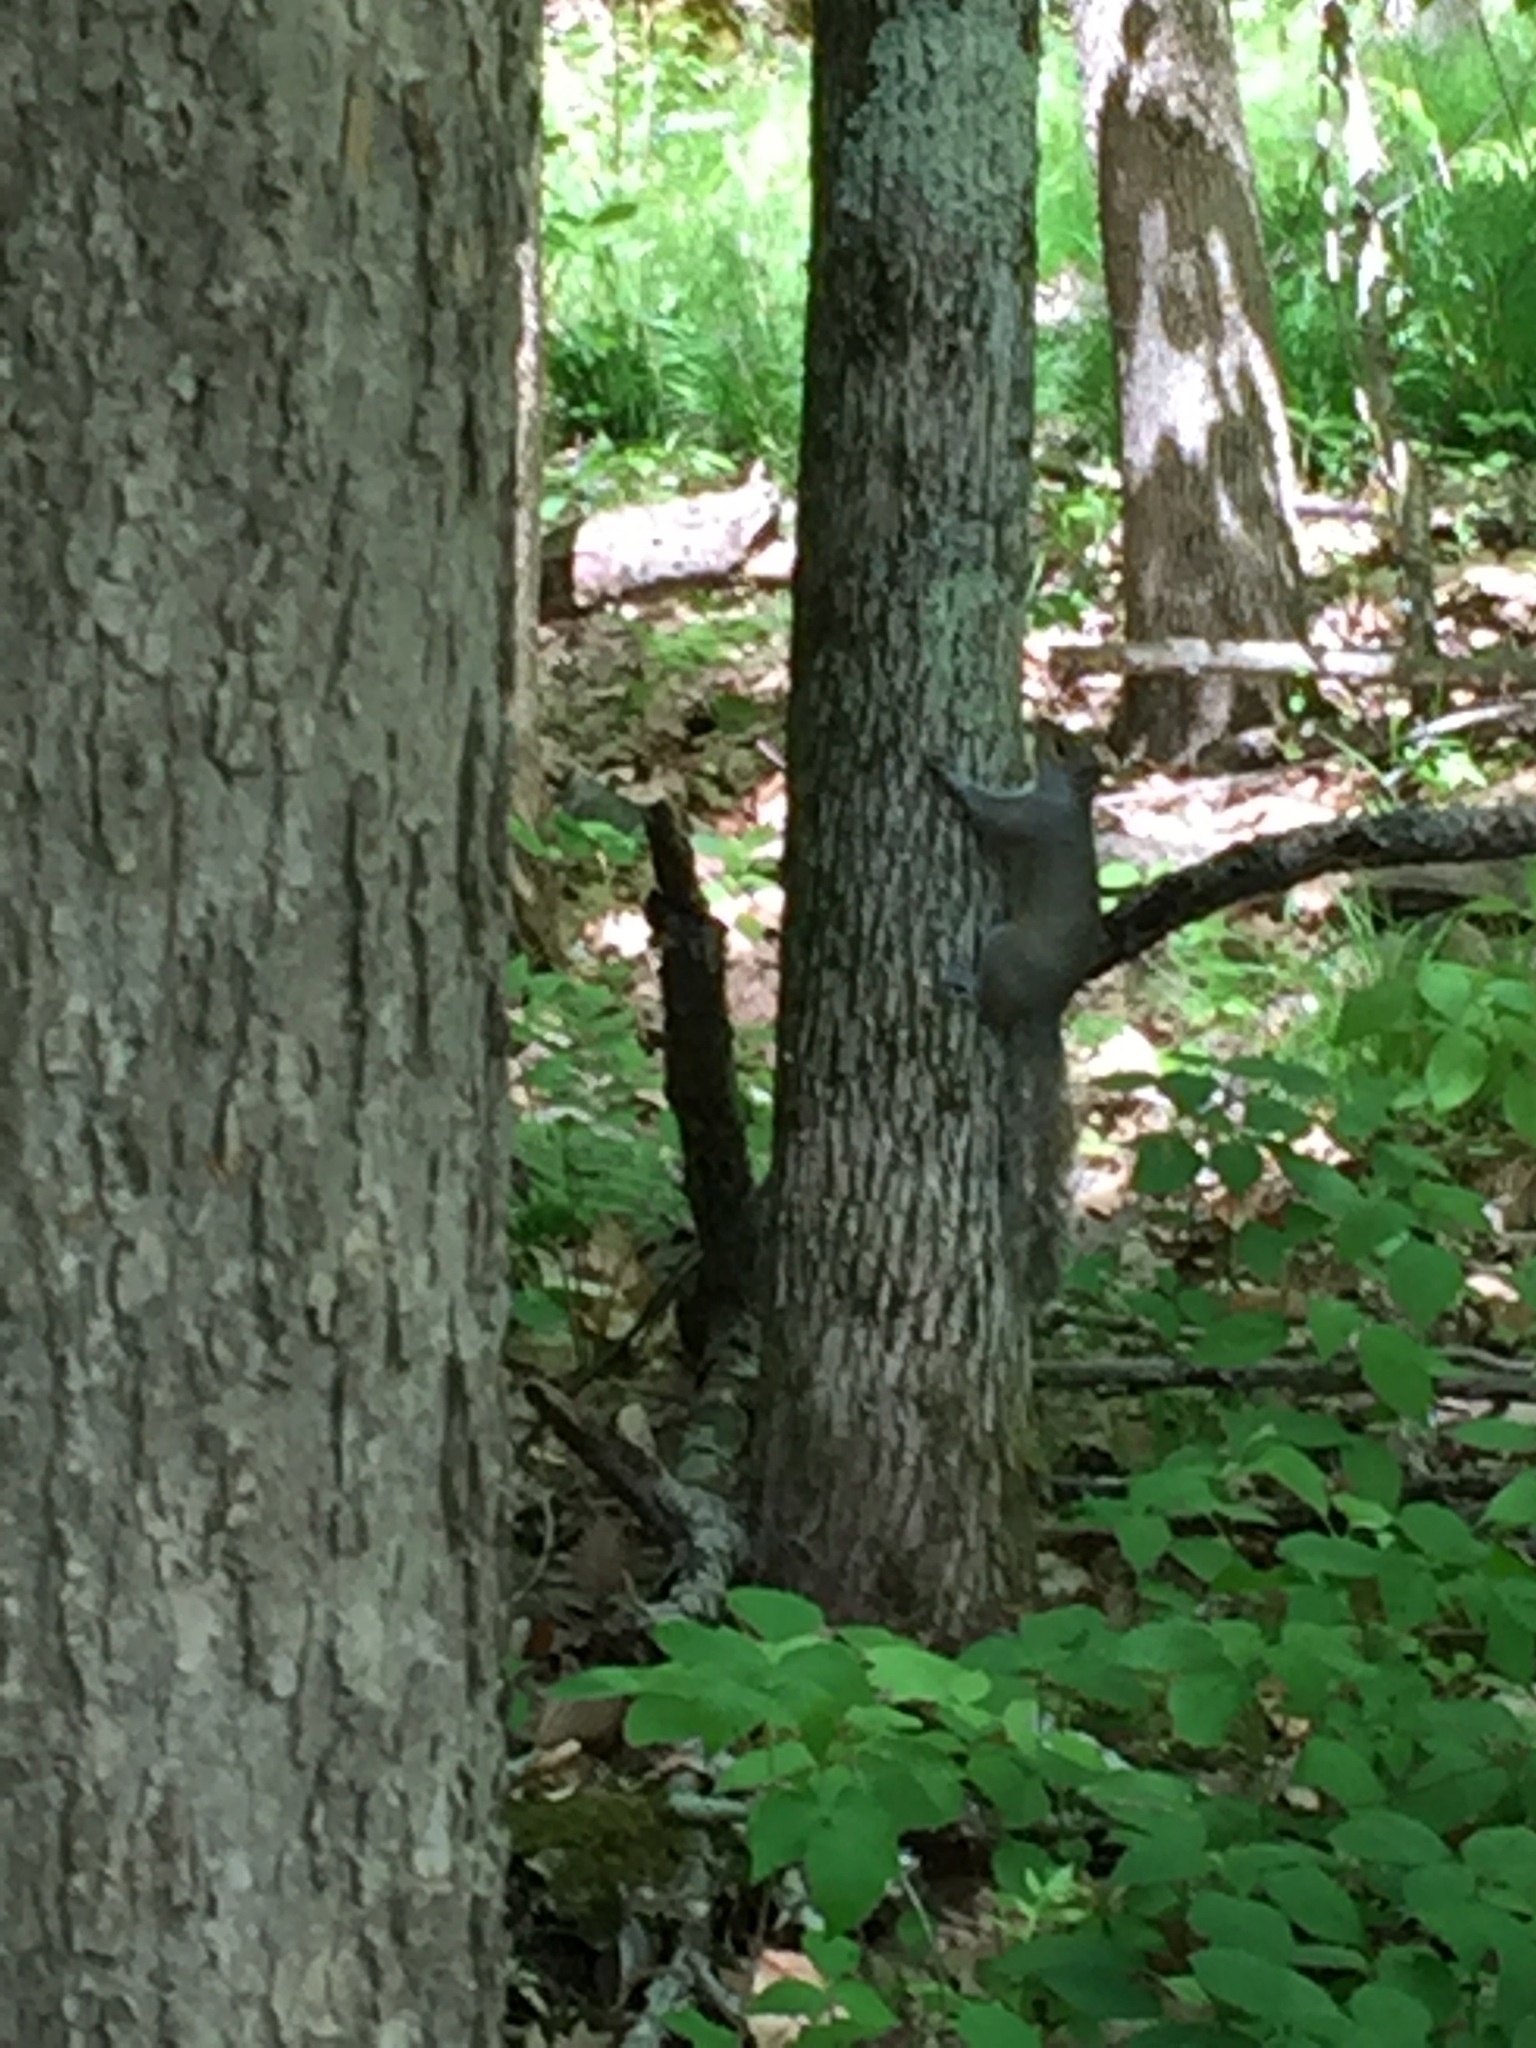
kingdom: Animalia
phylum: Chordata
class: Mammalia
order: Rodentia
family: Sciuridae
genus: Sciurus
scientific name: Sciurus carolinensis
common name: Eastern gray squirrel
